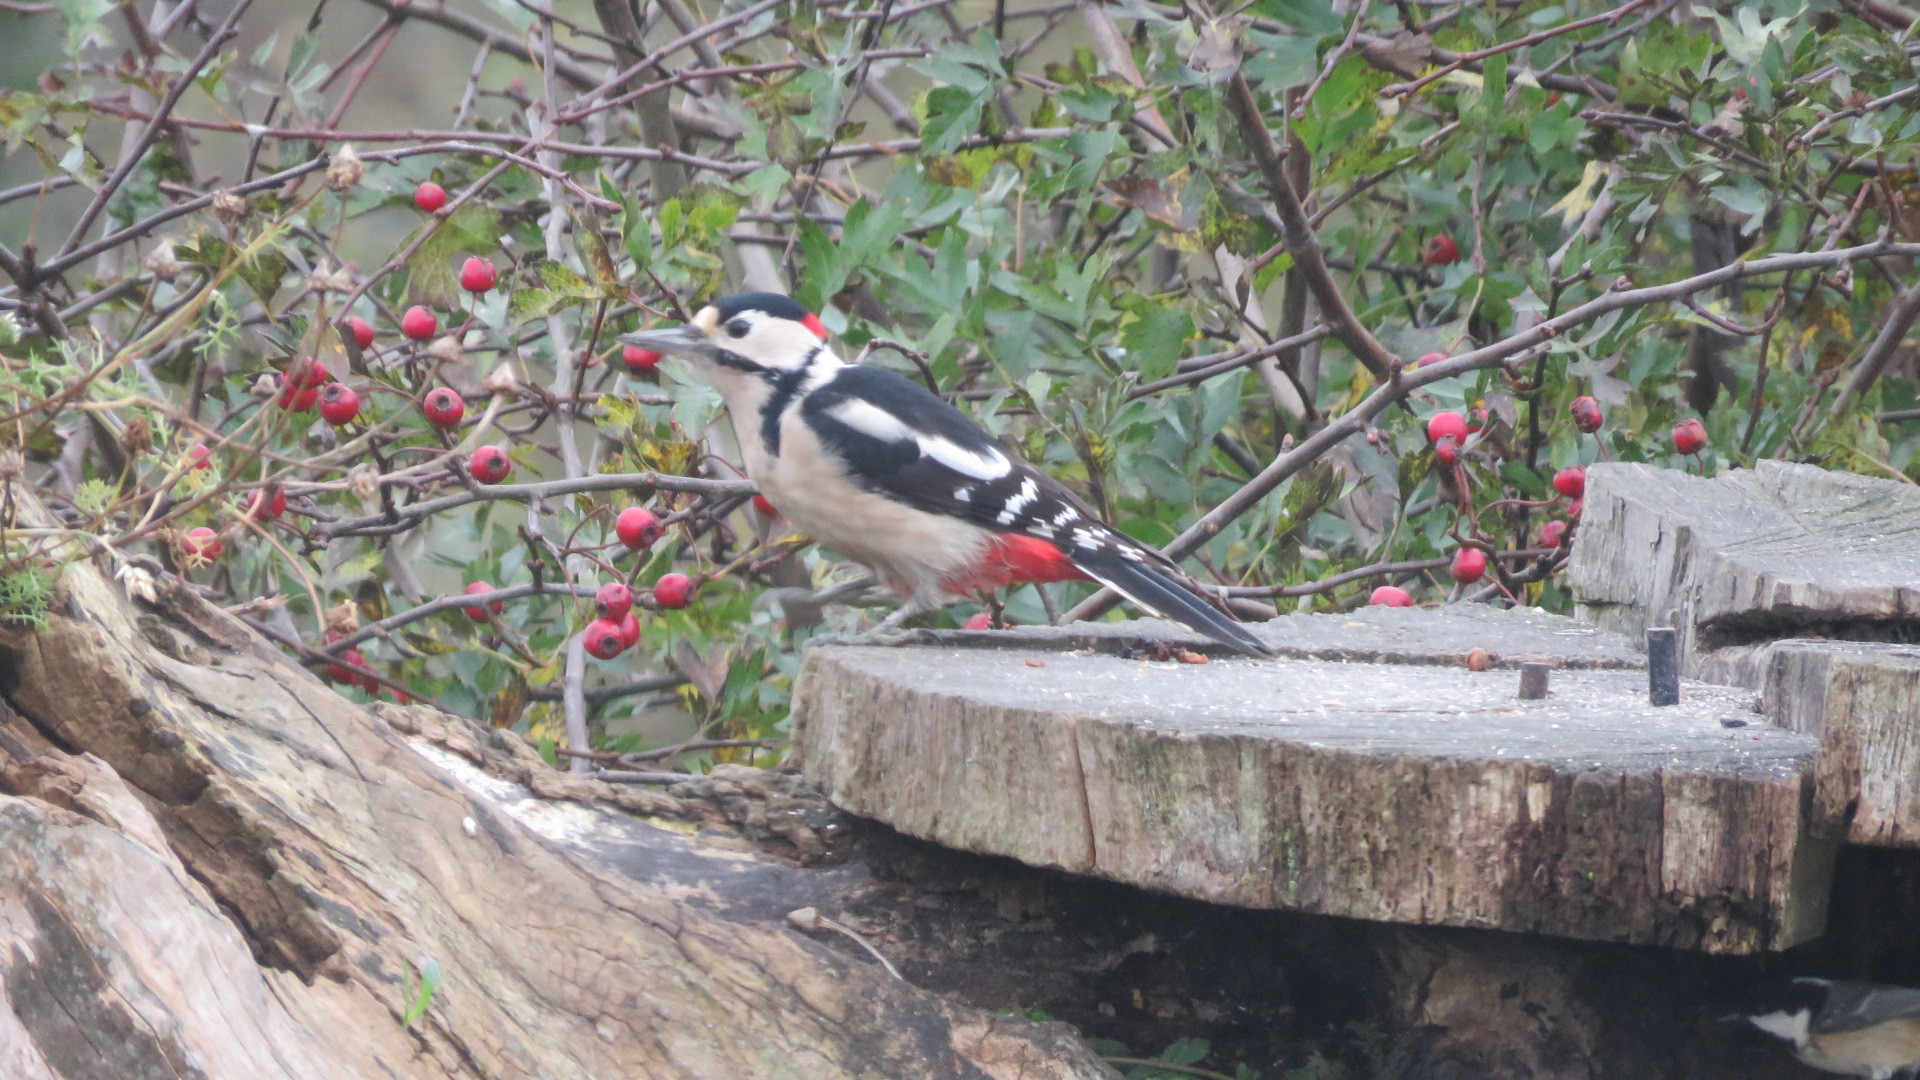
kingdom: Animalia
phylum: Chordata
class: Aves
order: Piciformes
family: Picidae
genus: Dendrocopos
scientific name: Dendrocopos major
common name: Great spotted woodpecker
